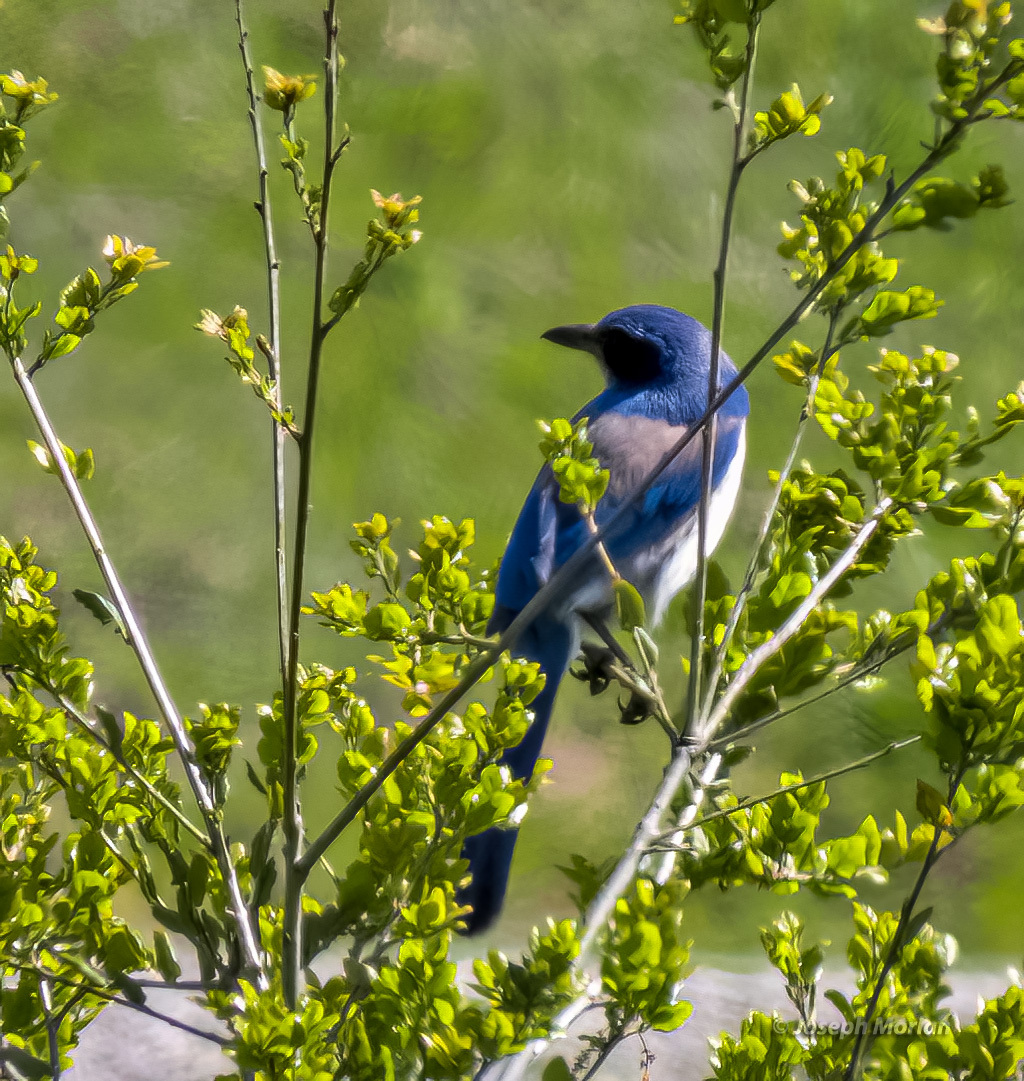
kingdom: Animalia
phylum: Chordata
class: Aves
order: Passeriformes
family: Corvidae
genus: Aphelocoma
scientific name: Aphelocoma californica
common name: California scrub-jay
